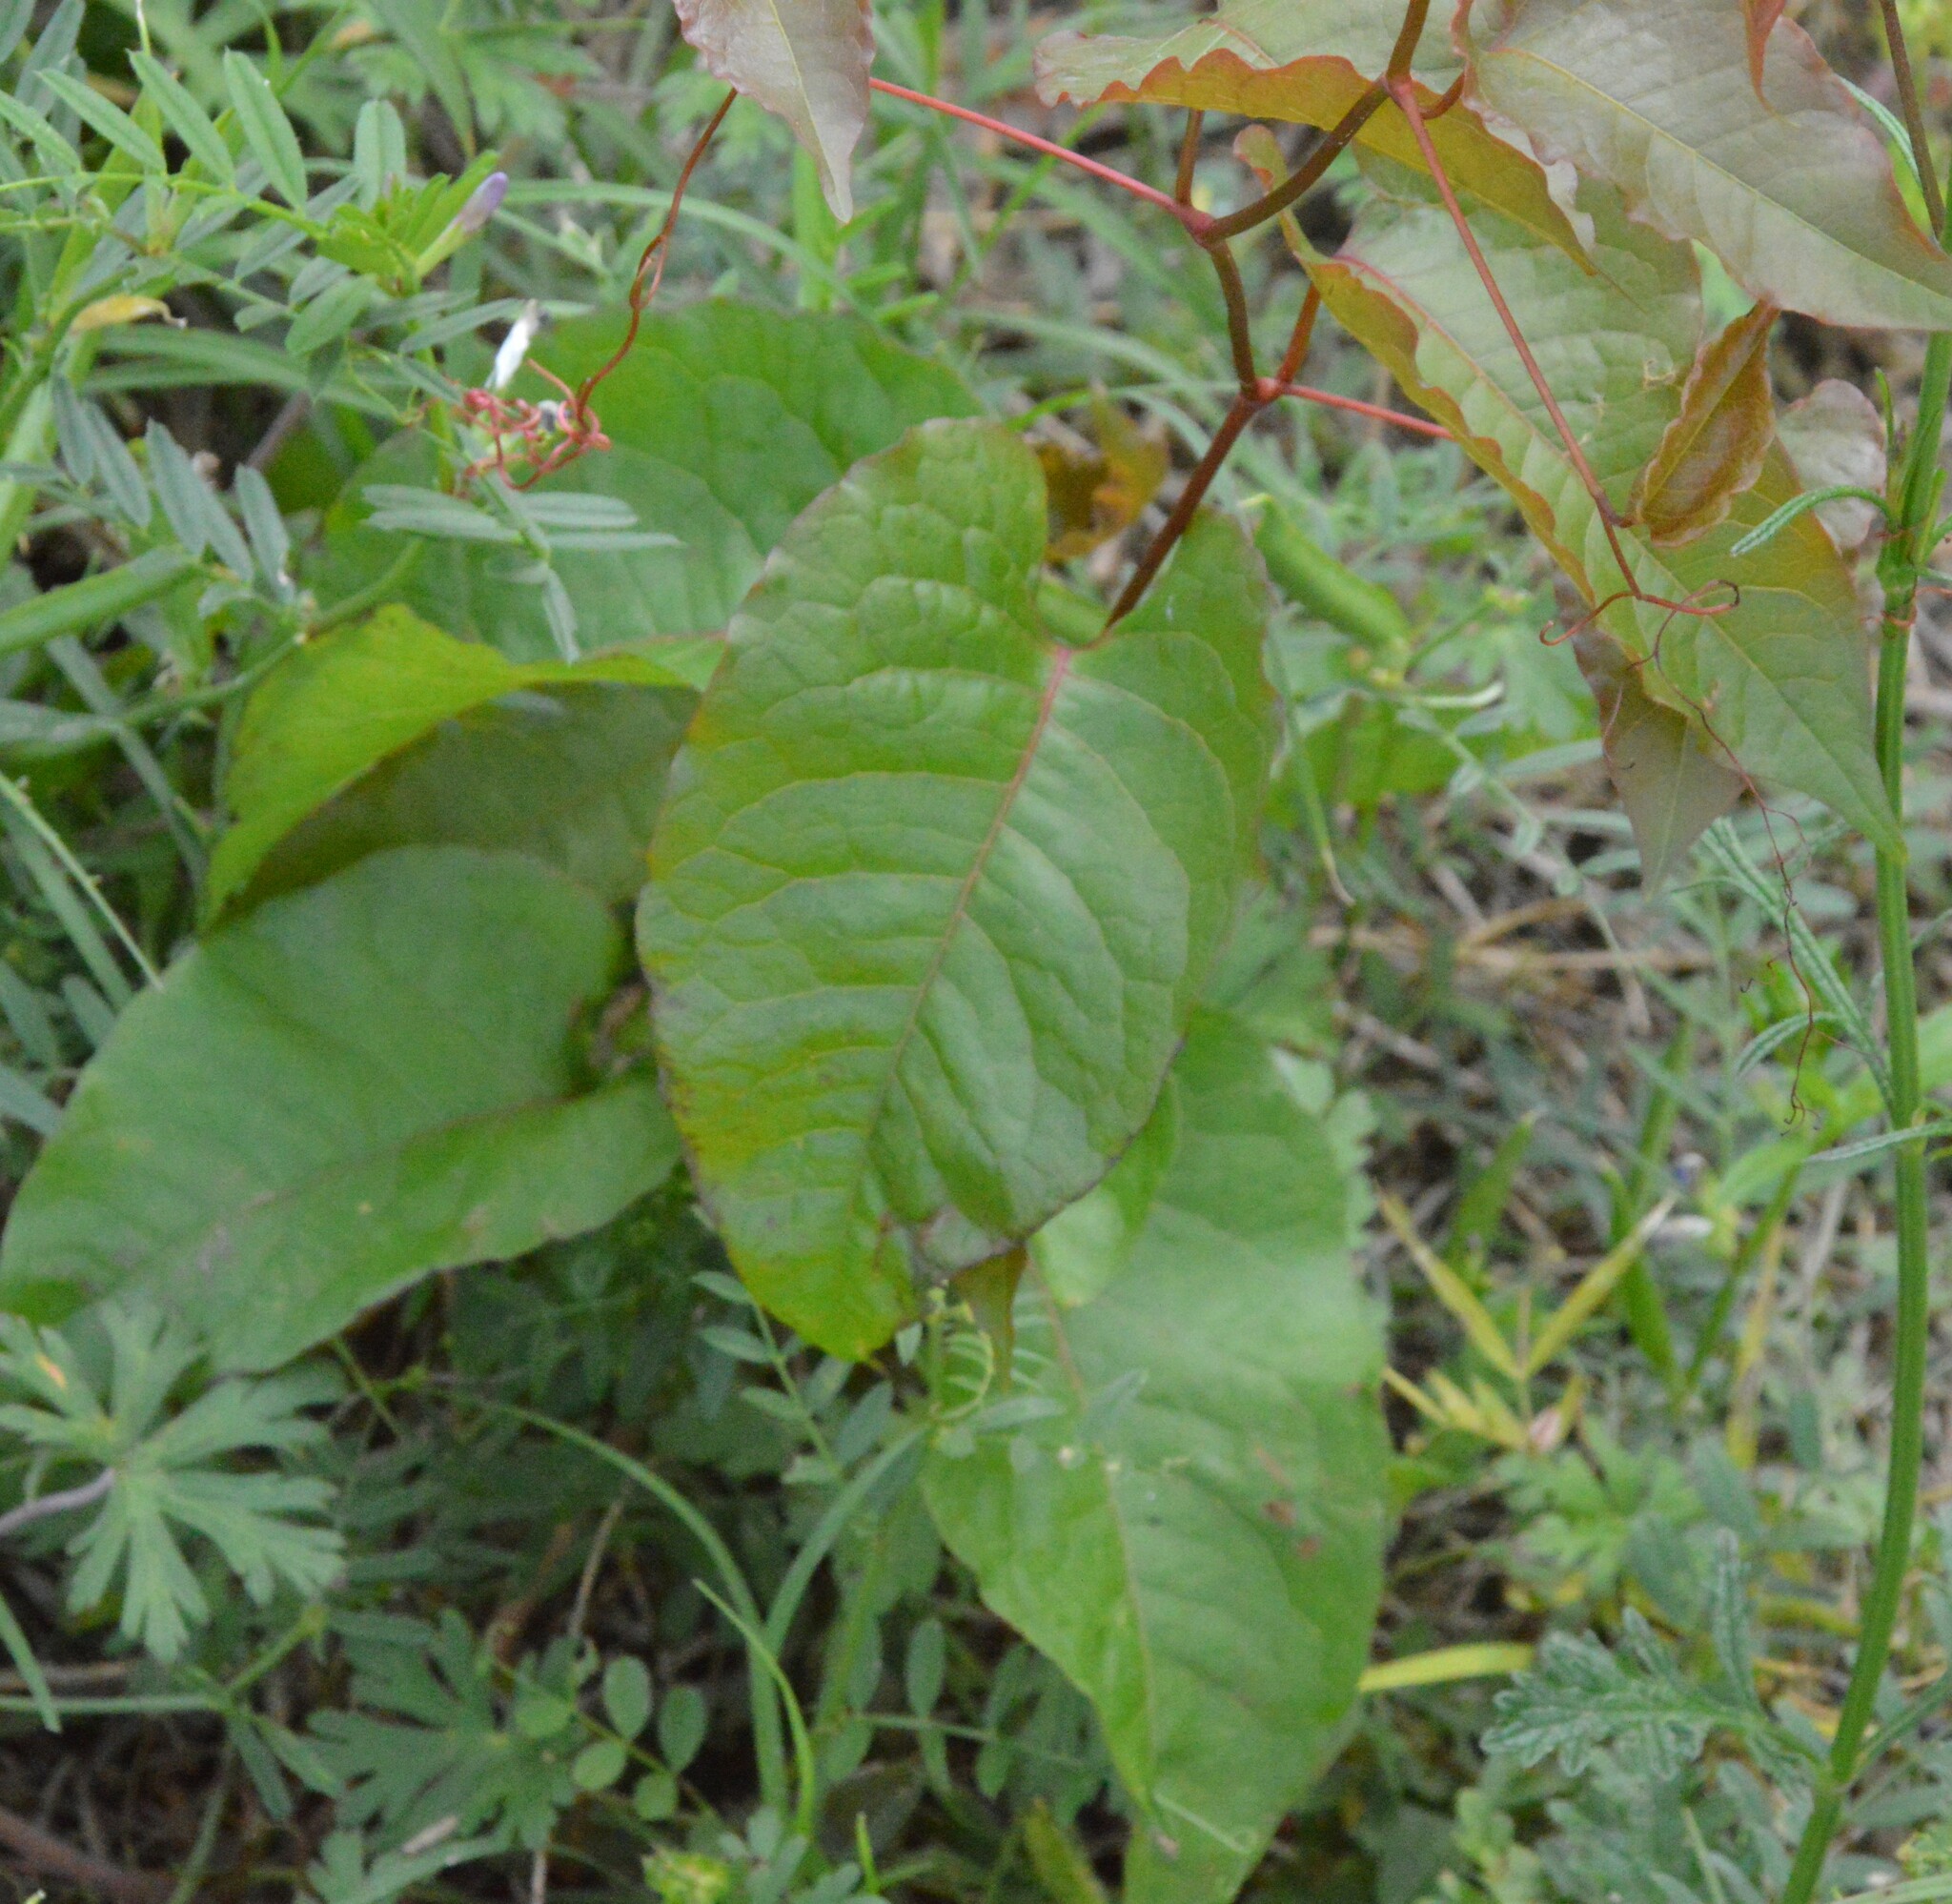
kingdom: Plantae
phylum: Tracheophyta
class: Magnoliopsida
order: Caryophyllales
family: Polygonaceae
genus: Brunnichia
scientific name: Brunnichia ovata
